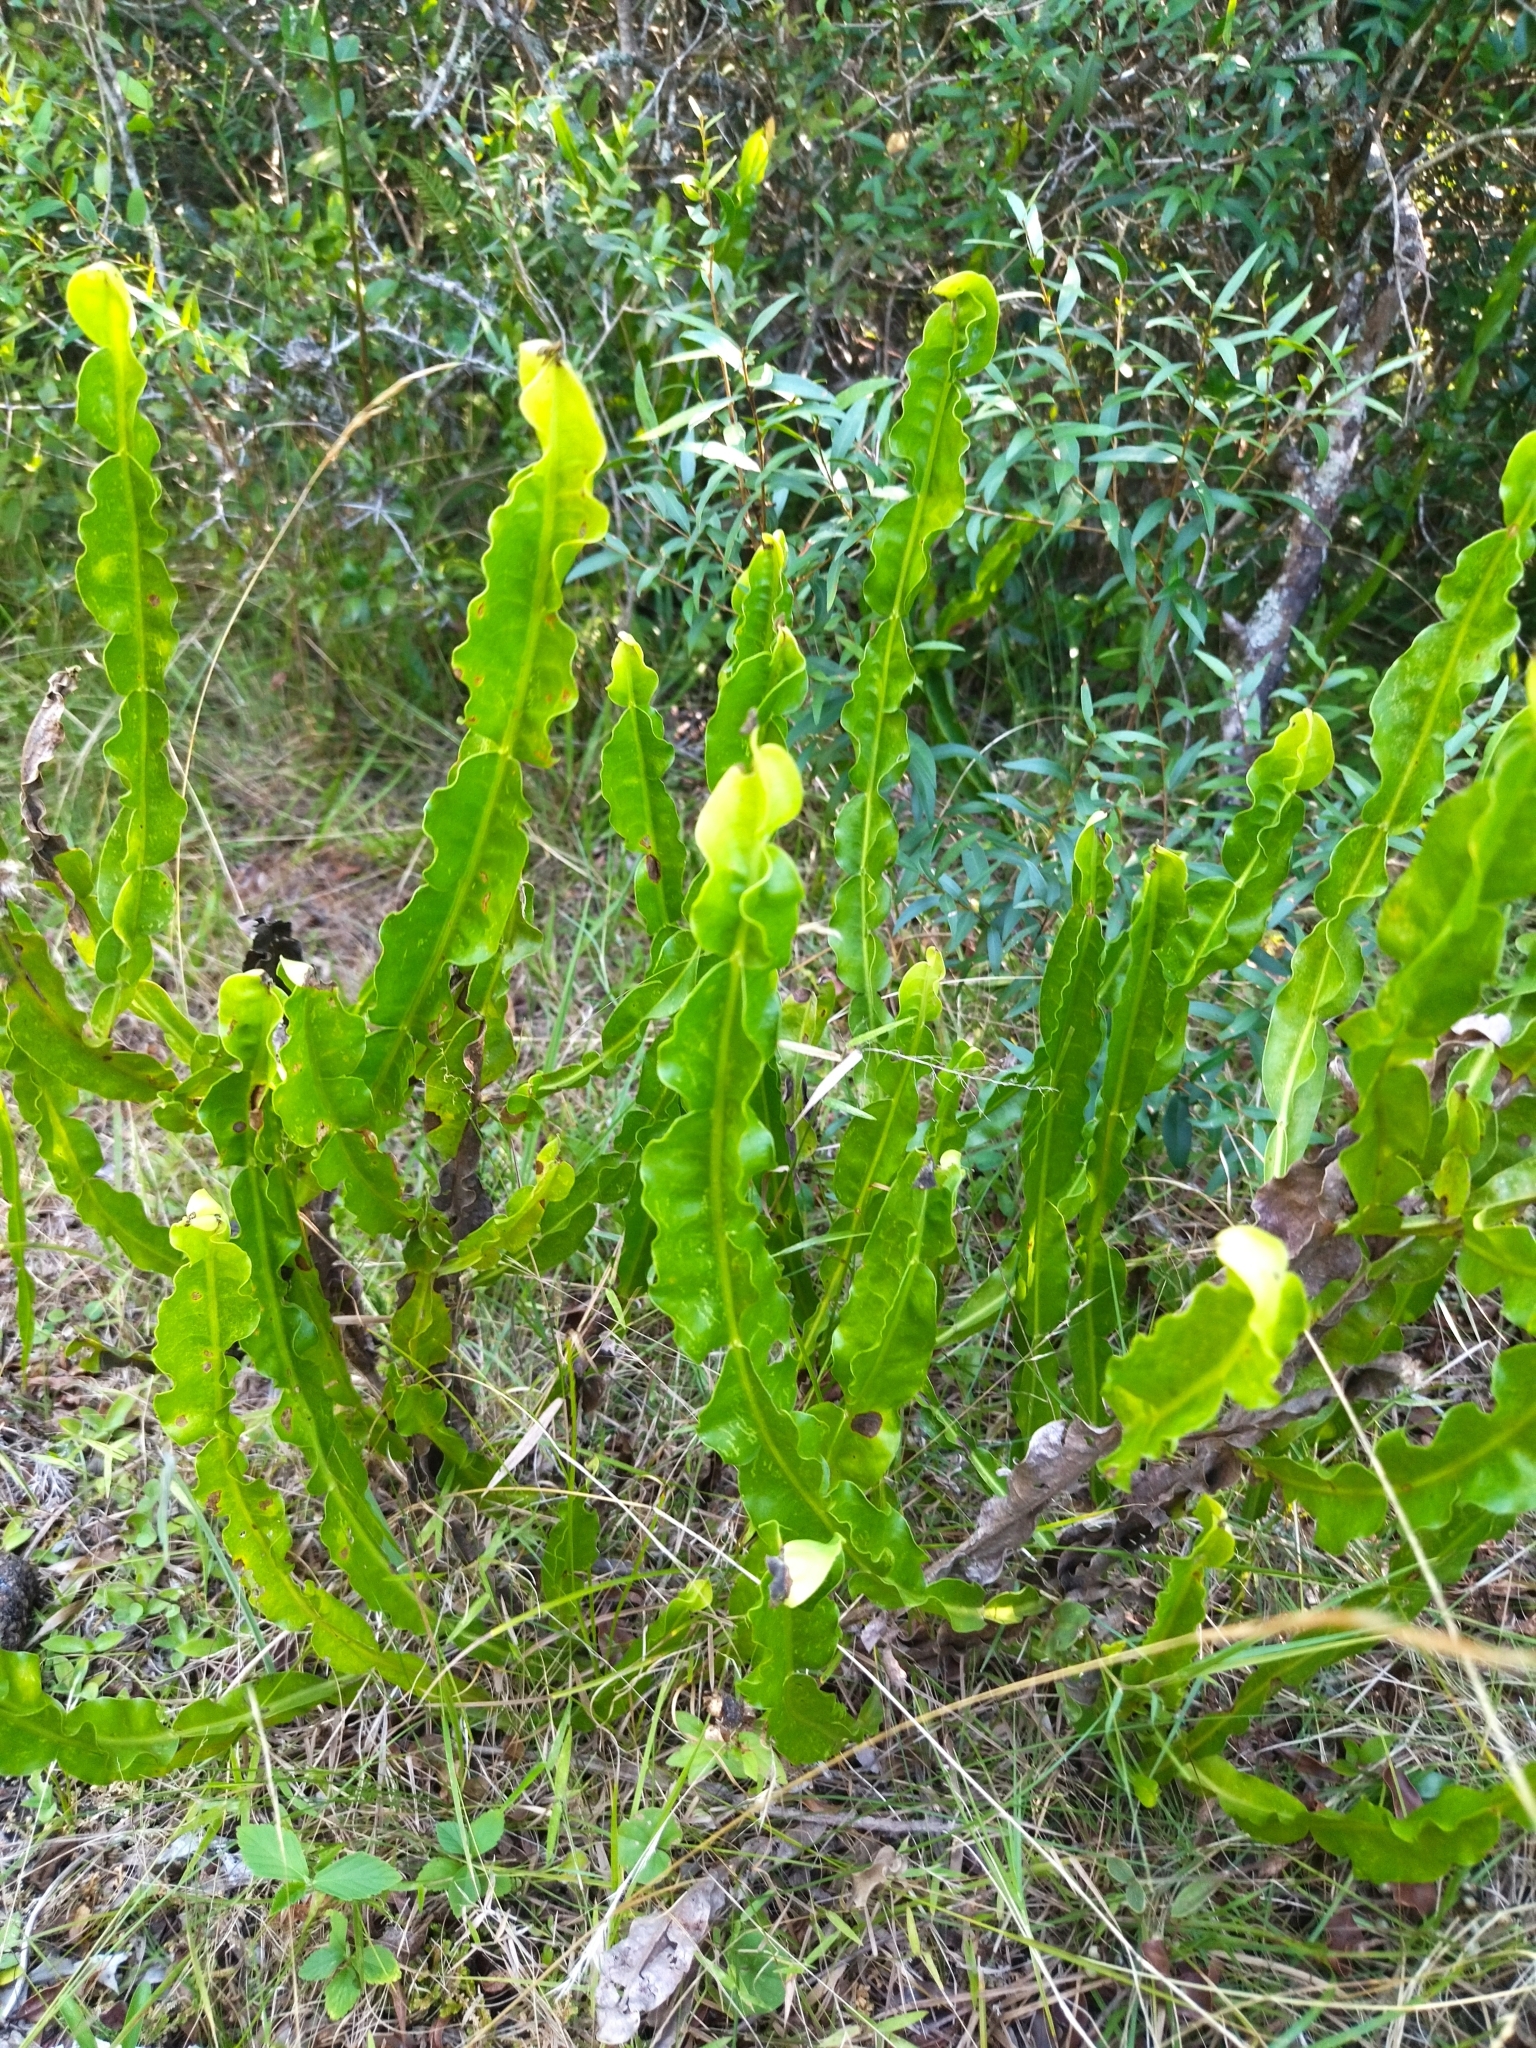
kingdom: Plantae
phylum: Tracheophyta
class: Magnoliopsida
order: Asterales
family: Asteraceae
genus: Baccharis
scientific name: Baccharis jocheniana
